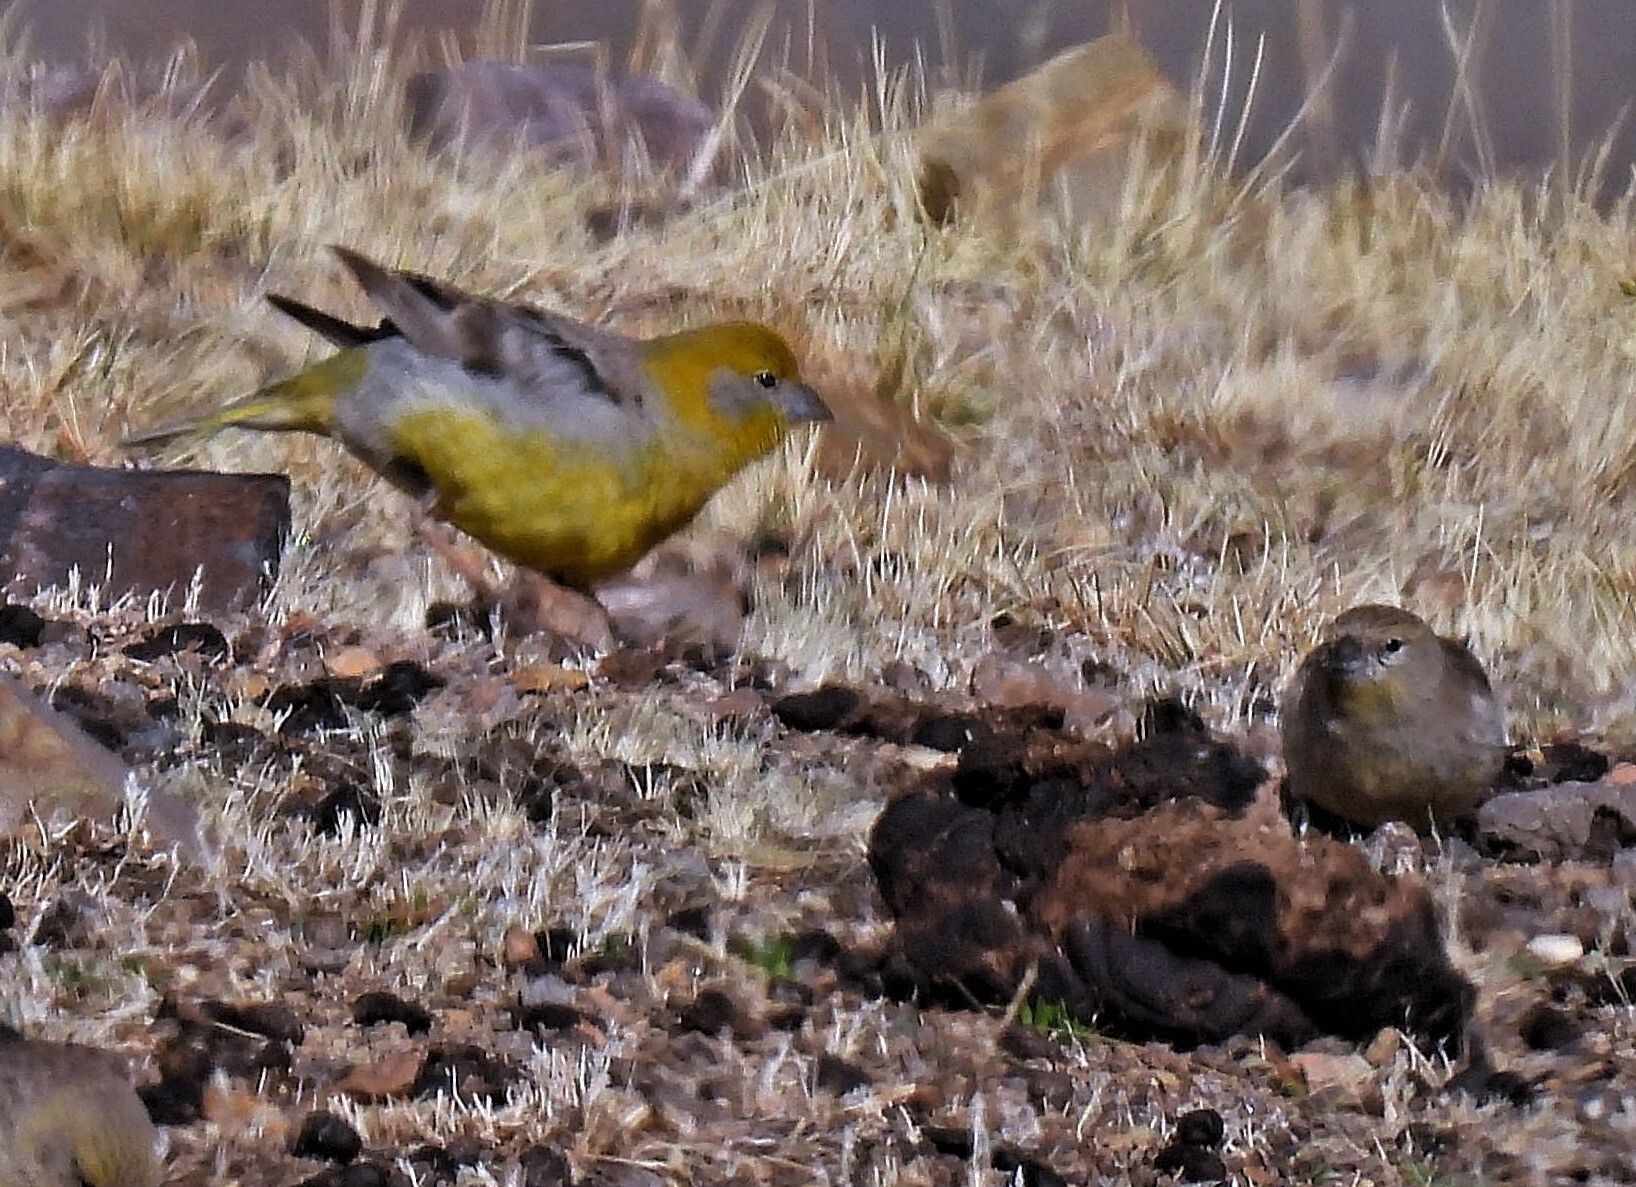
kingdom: Animalia
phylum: Chordata
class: Aves
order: Passeriformes
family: Thraupidae
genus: Sicalis
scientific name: Sicalis uropigyalis
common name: Bright-rumped yellow finch
